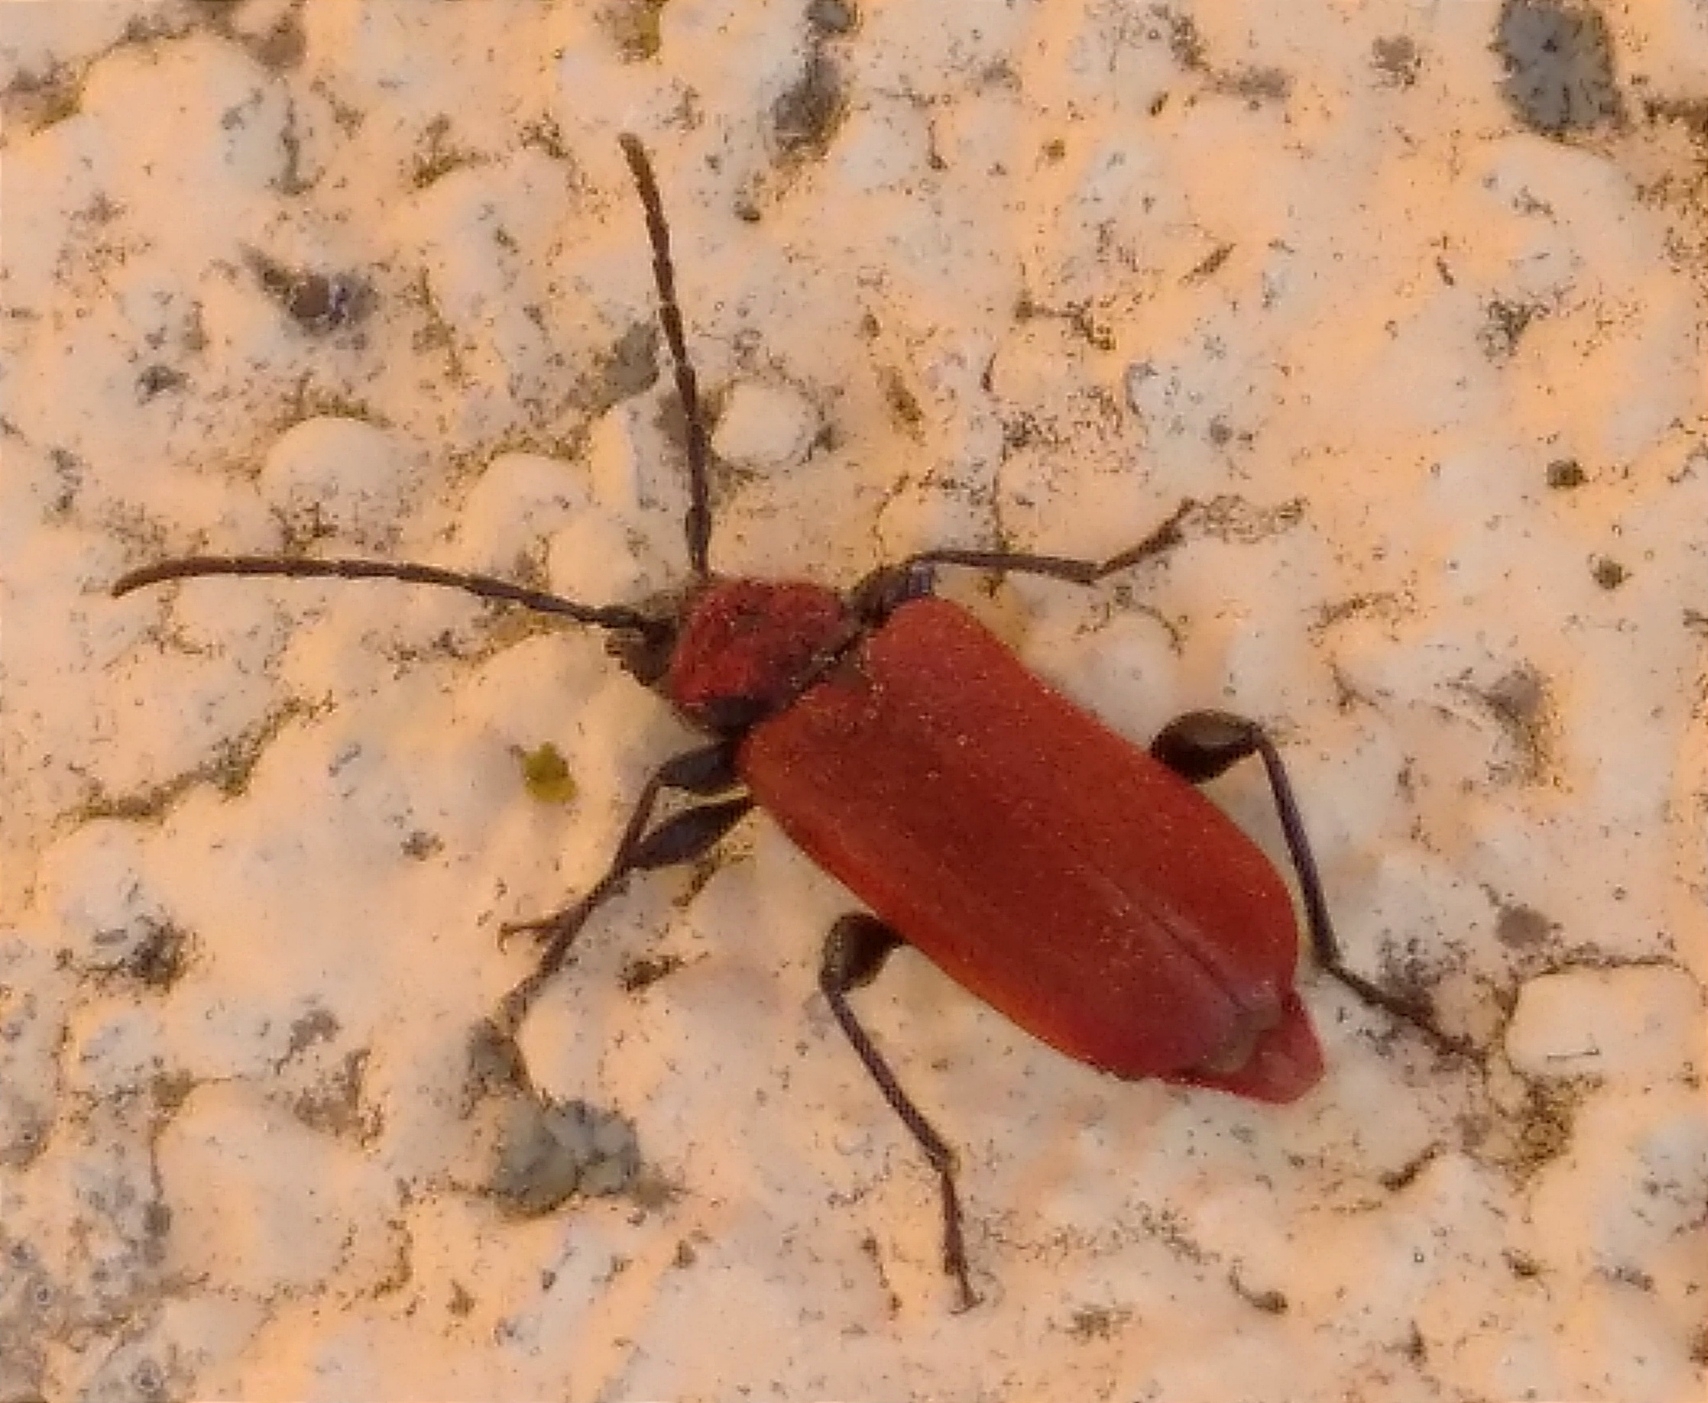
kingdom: Animalia
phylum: Arthropoda
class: Insecta
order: Coleoptera
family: Cerambycidae
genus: Pyrrhidium
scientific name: Pyrrhidium sanguineum
